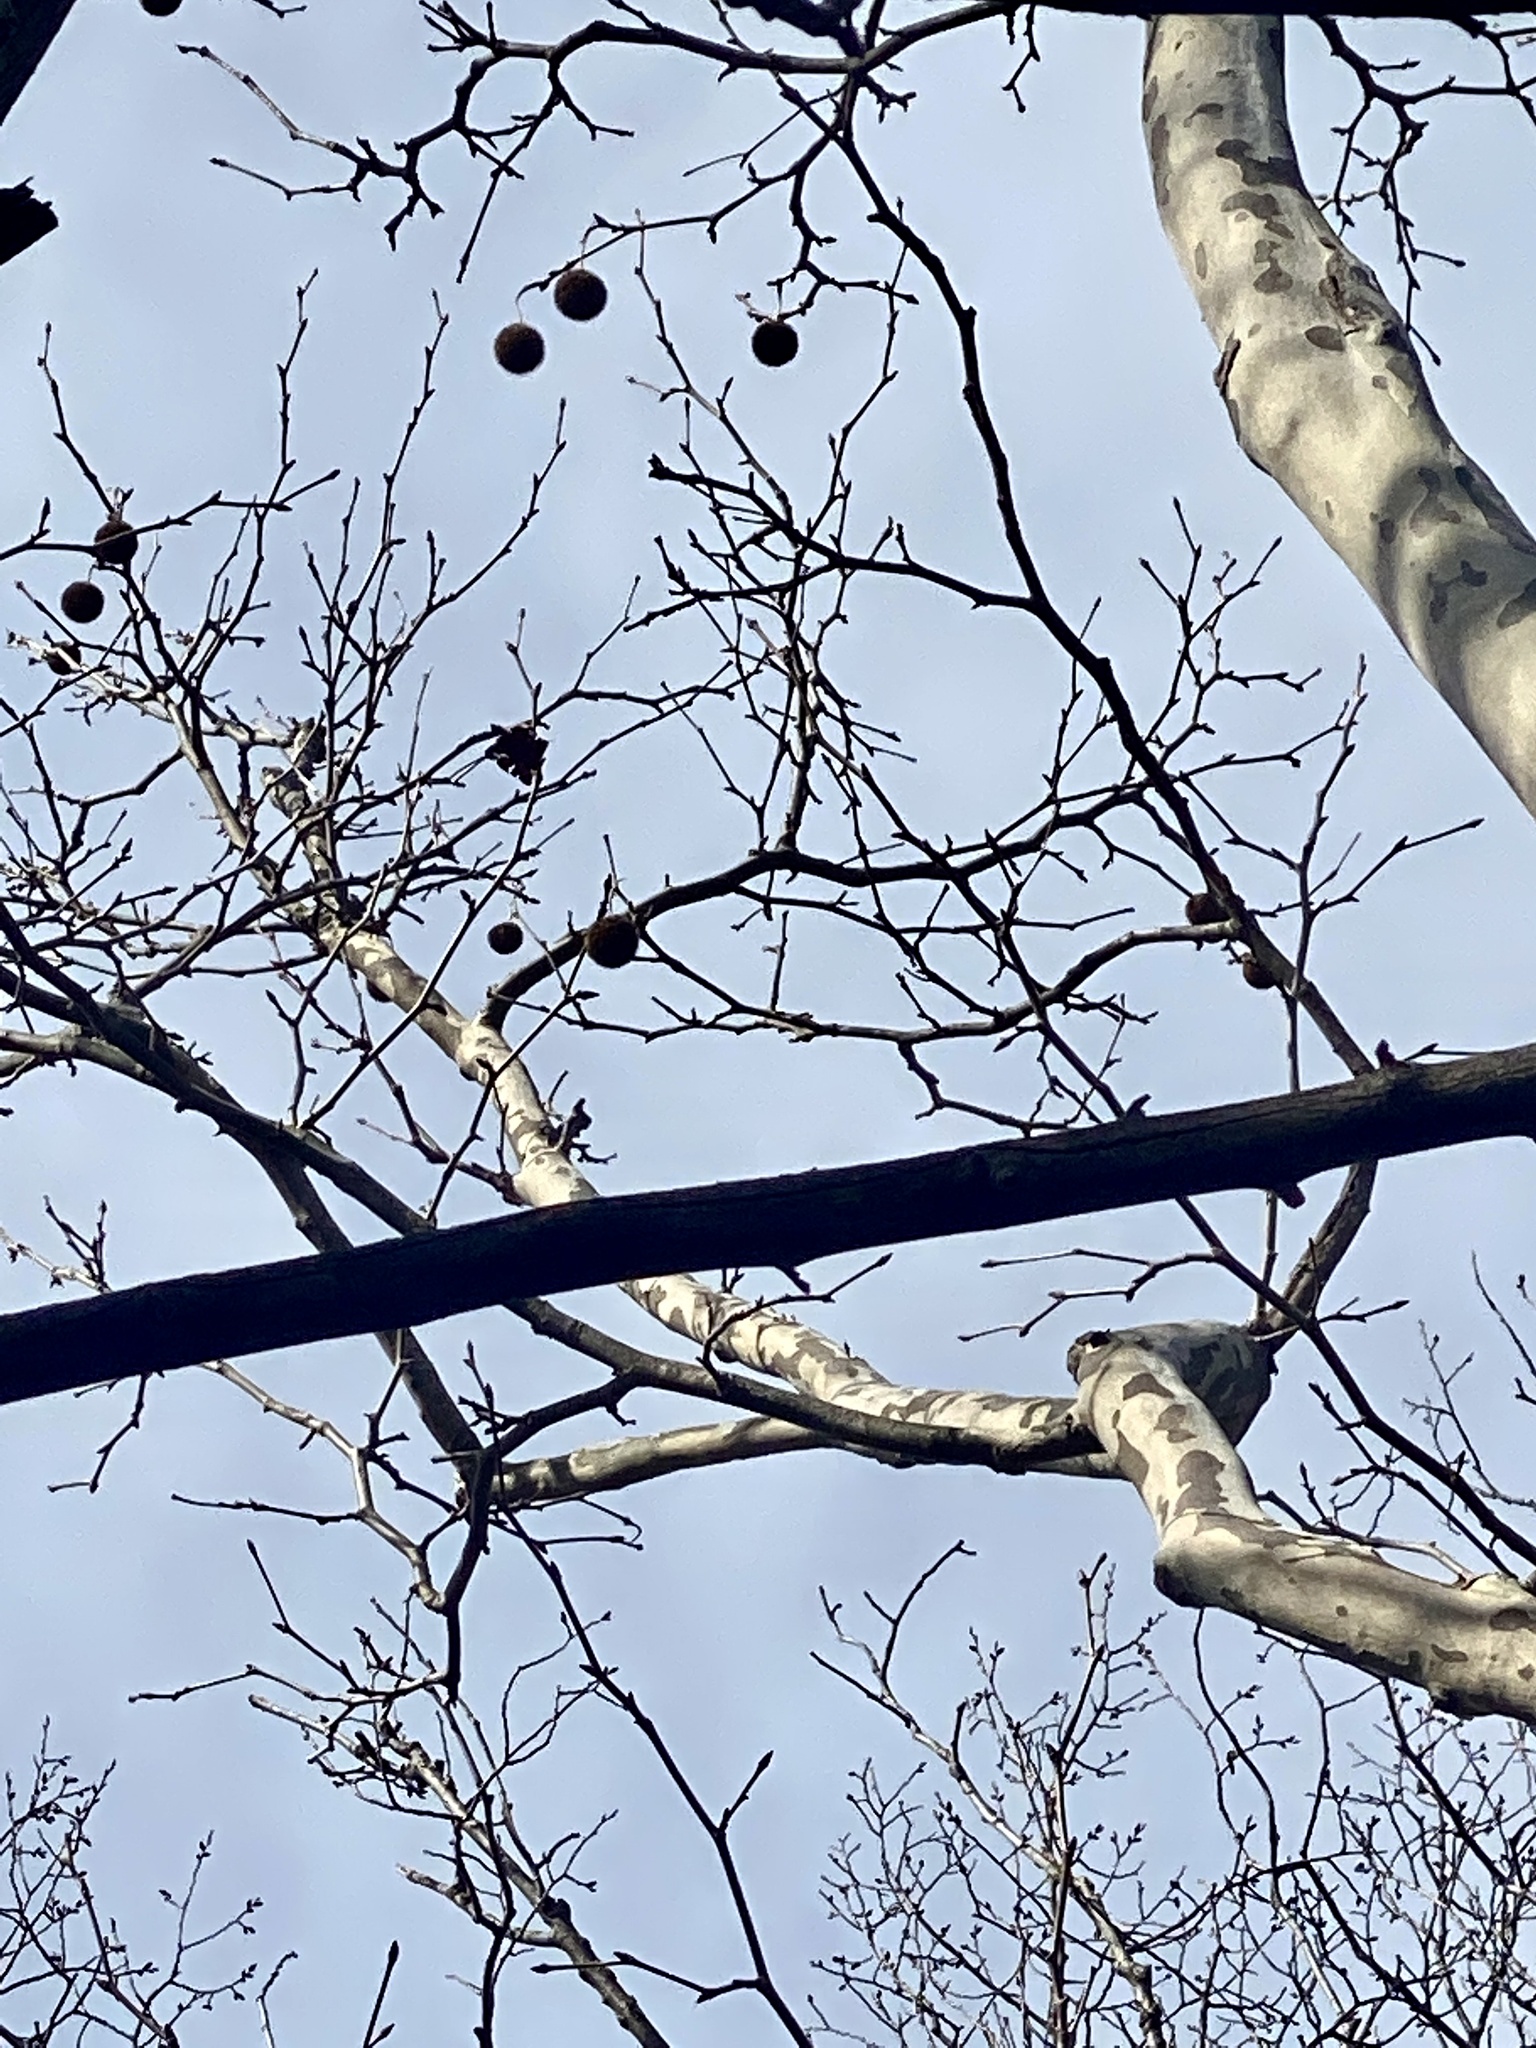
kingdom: Plantae
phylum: Tracheophyta
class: Magnoliopsida
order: Proteales
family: Platanaceae
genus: Platanus
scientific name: Platanus occidentalis
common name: American sycamore
